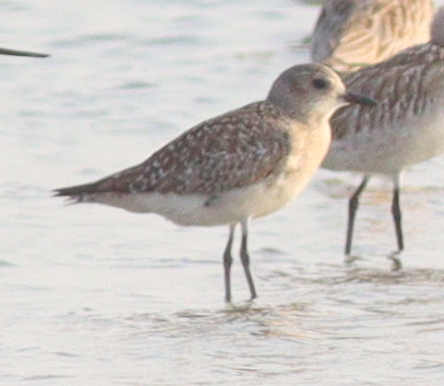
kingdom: Animalia
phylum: Chordata
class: Aves
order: Charadriiformes
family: Charadriidae
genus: Pluvialis
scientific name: Pluvialis squatarola
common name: Grey plover
